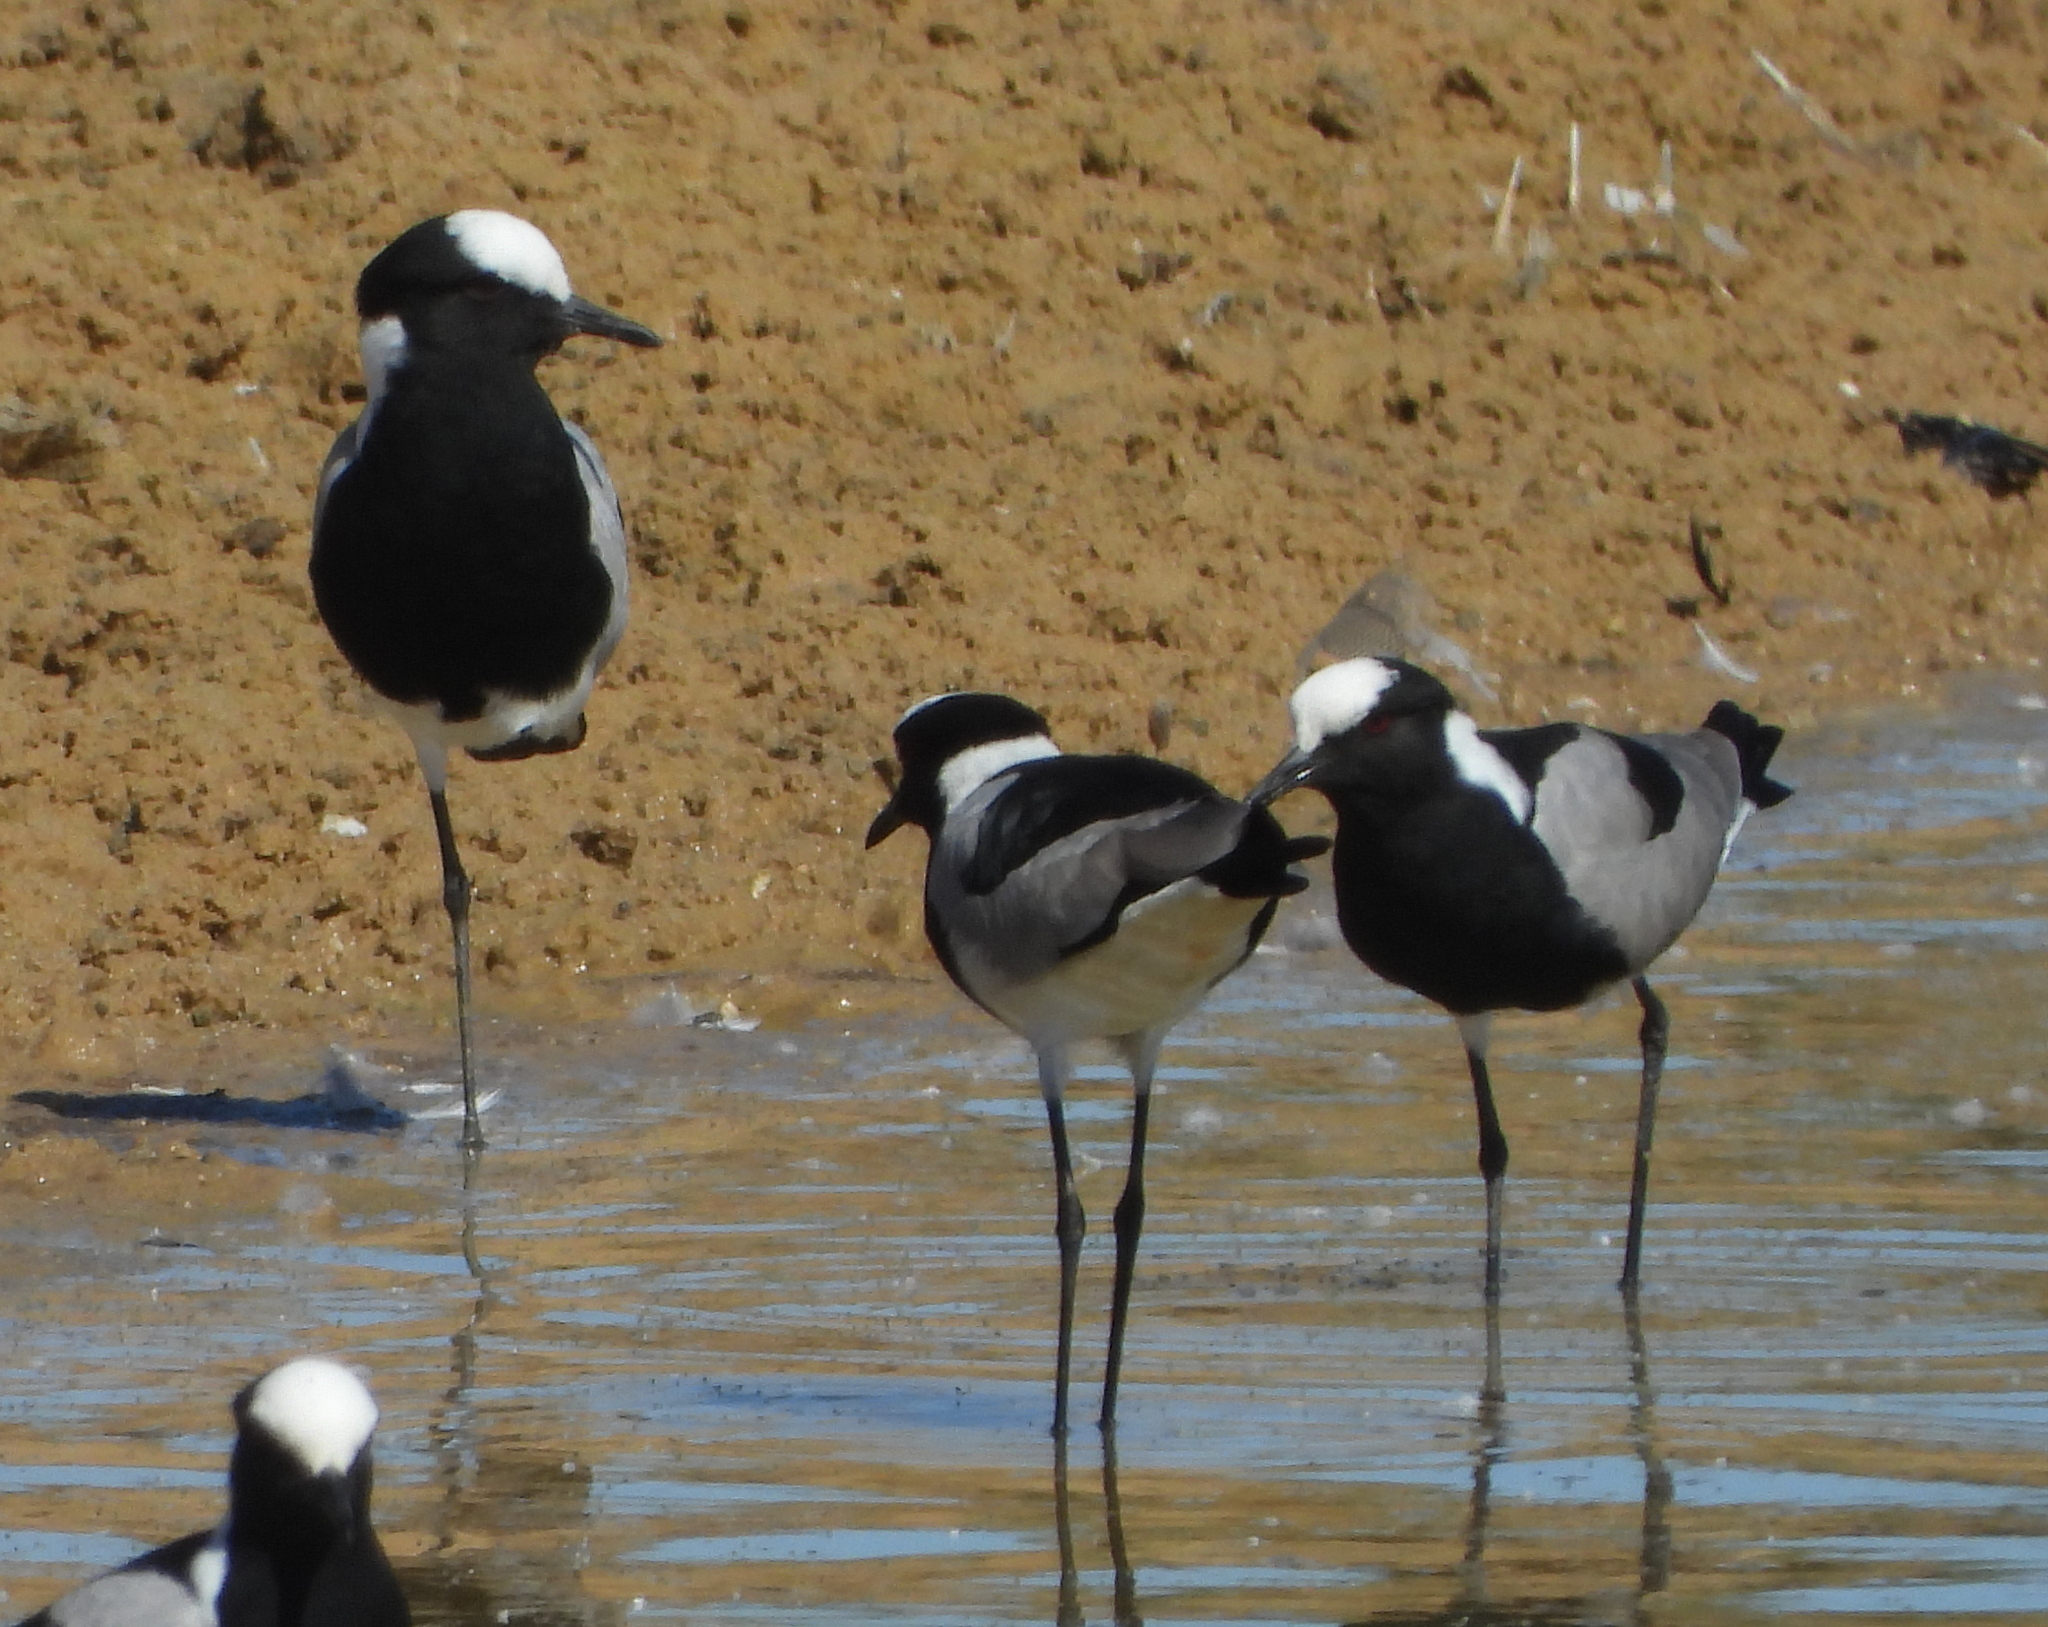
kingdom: Animalia
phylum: Chordata
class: Aves
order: Charadriiformes
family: Charadriidae
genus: Vanellus
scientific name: Vanellus armatus
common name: Blacksmith lapwing
